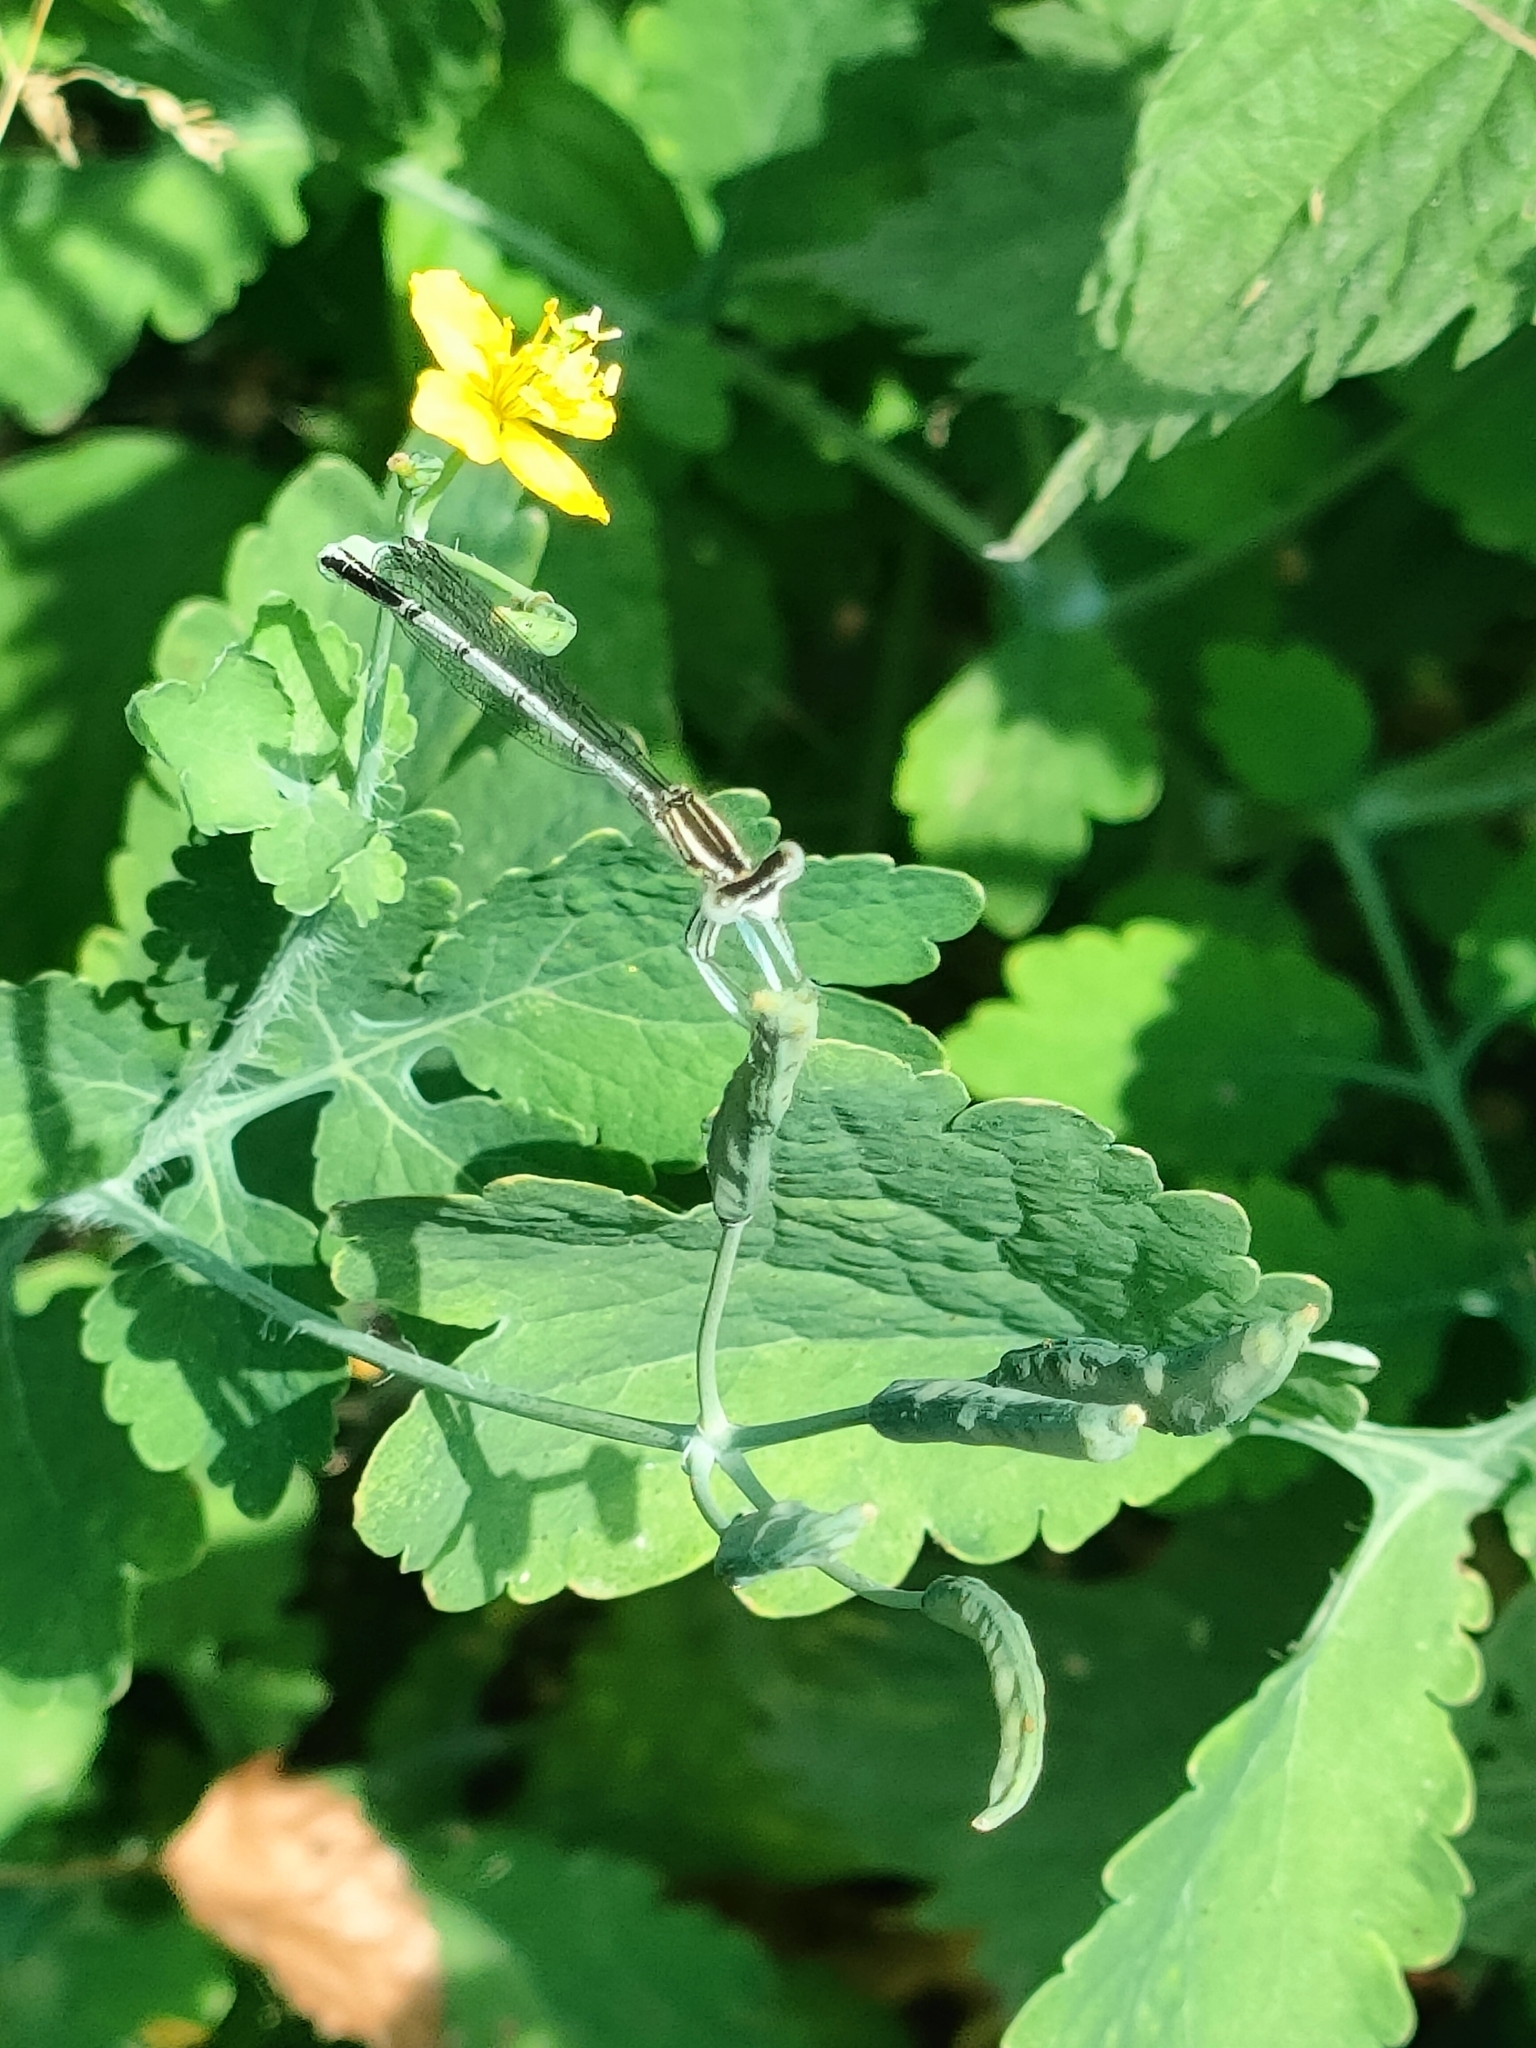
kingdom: Animalia
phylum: Arthropoda
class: Insecta
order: Odonata
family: Platycnemididae
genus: Platycnemis
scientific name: Platycnemis pennipes
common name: White-legged damselfly
